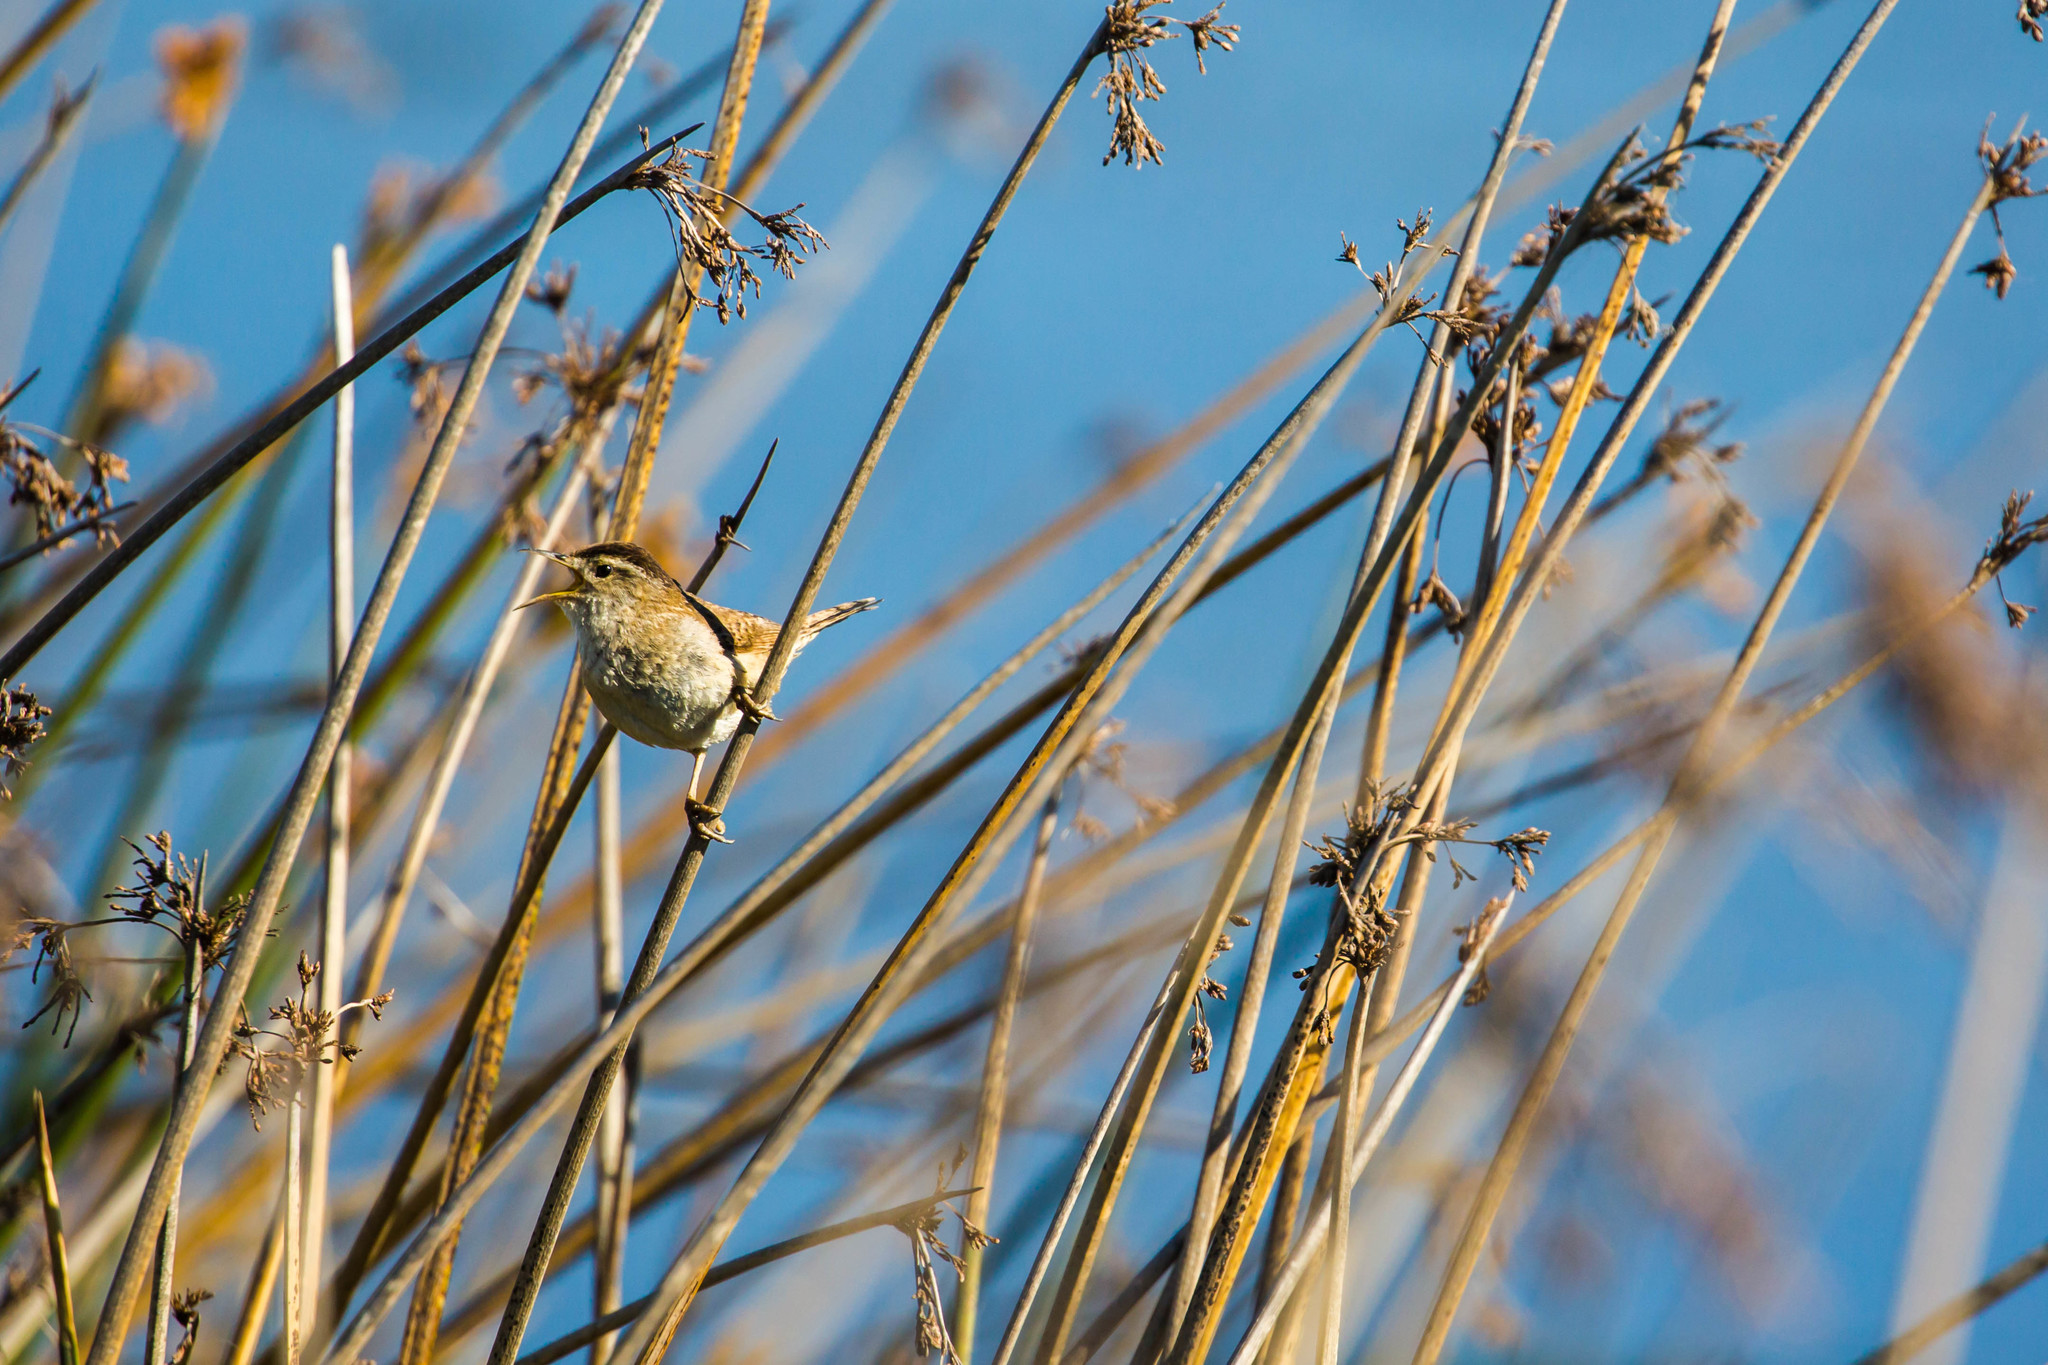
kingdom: Animalia
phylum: Chordata
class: Aves
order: Passeriformes
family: Troglodytidae
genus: Cistothorus
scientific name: Cistothorus palustris
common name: Marsh wren
